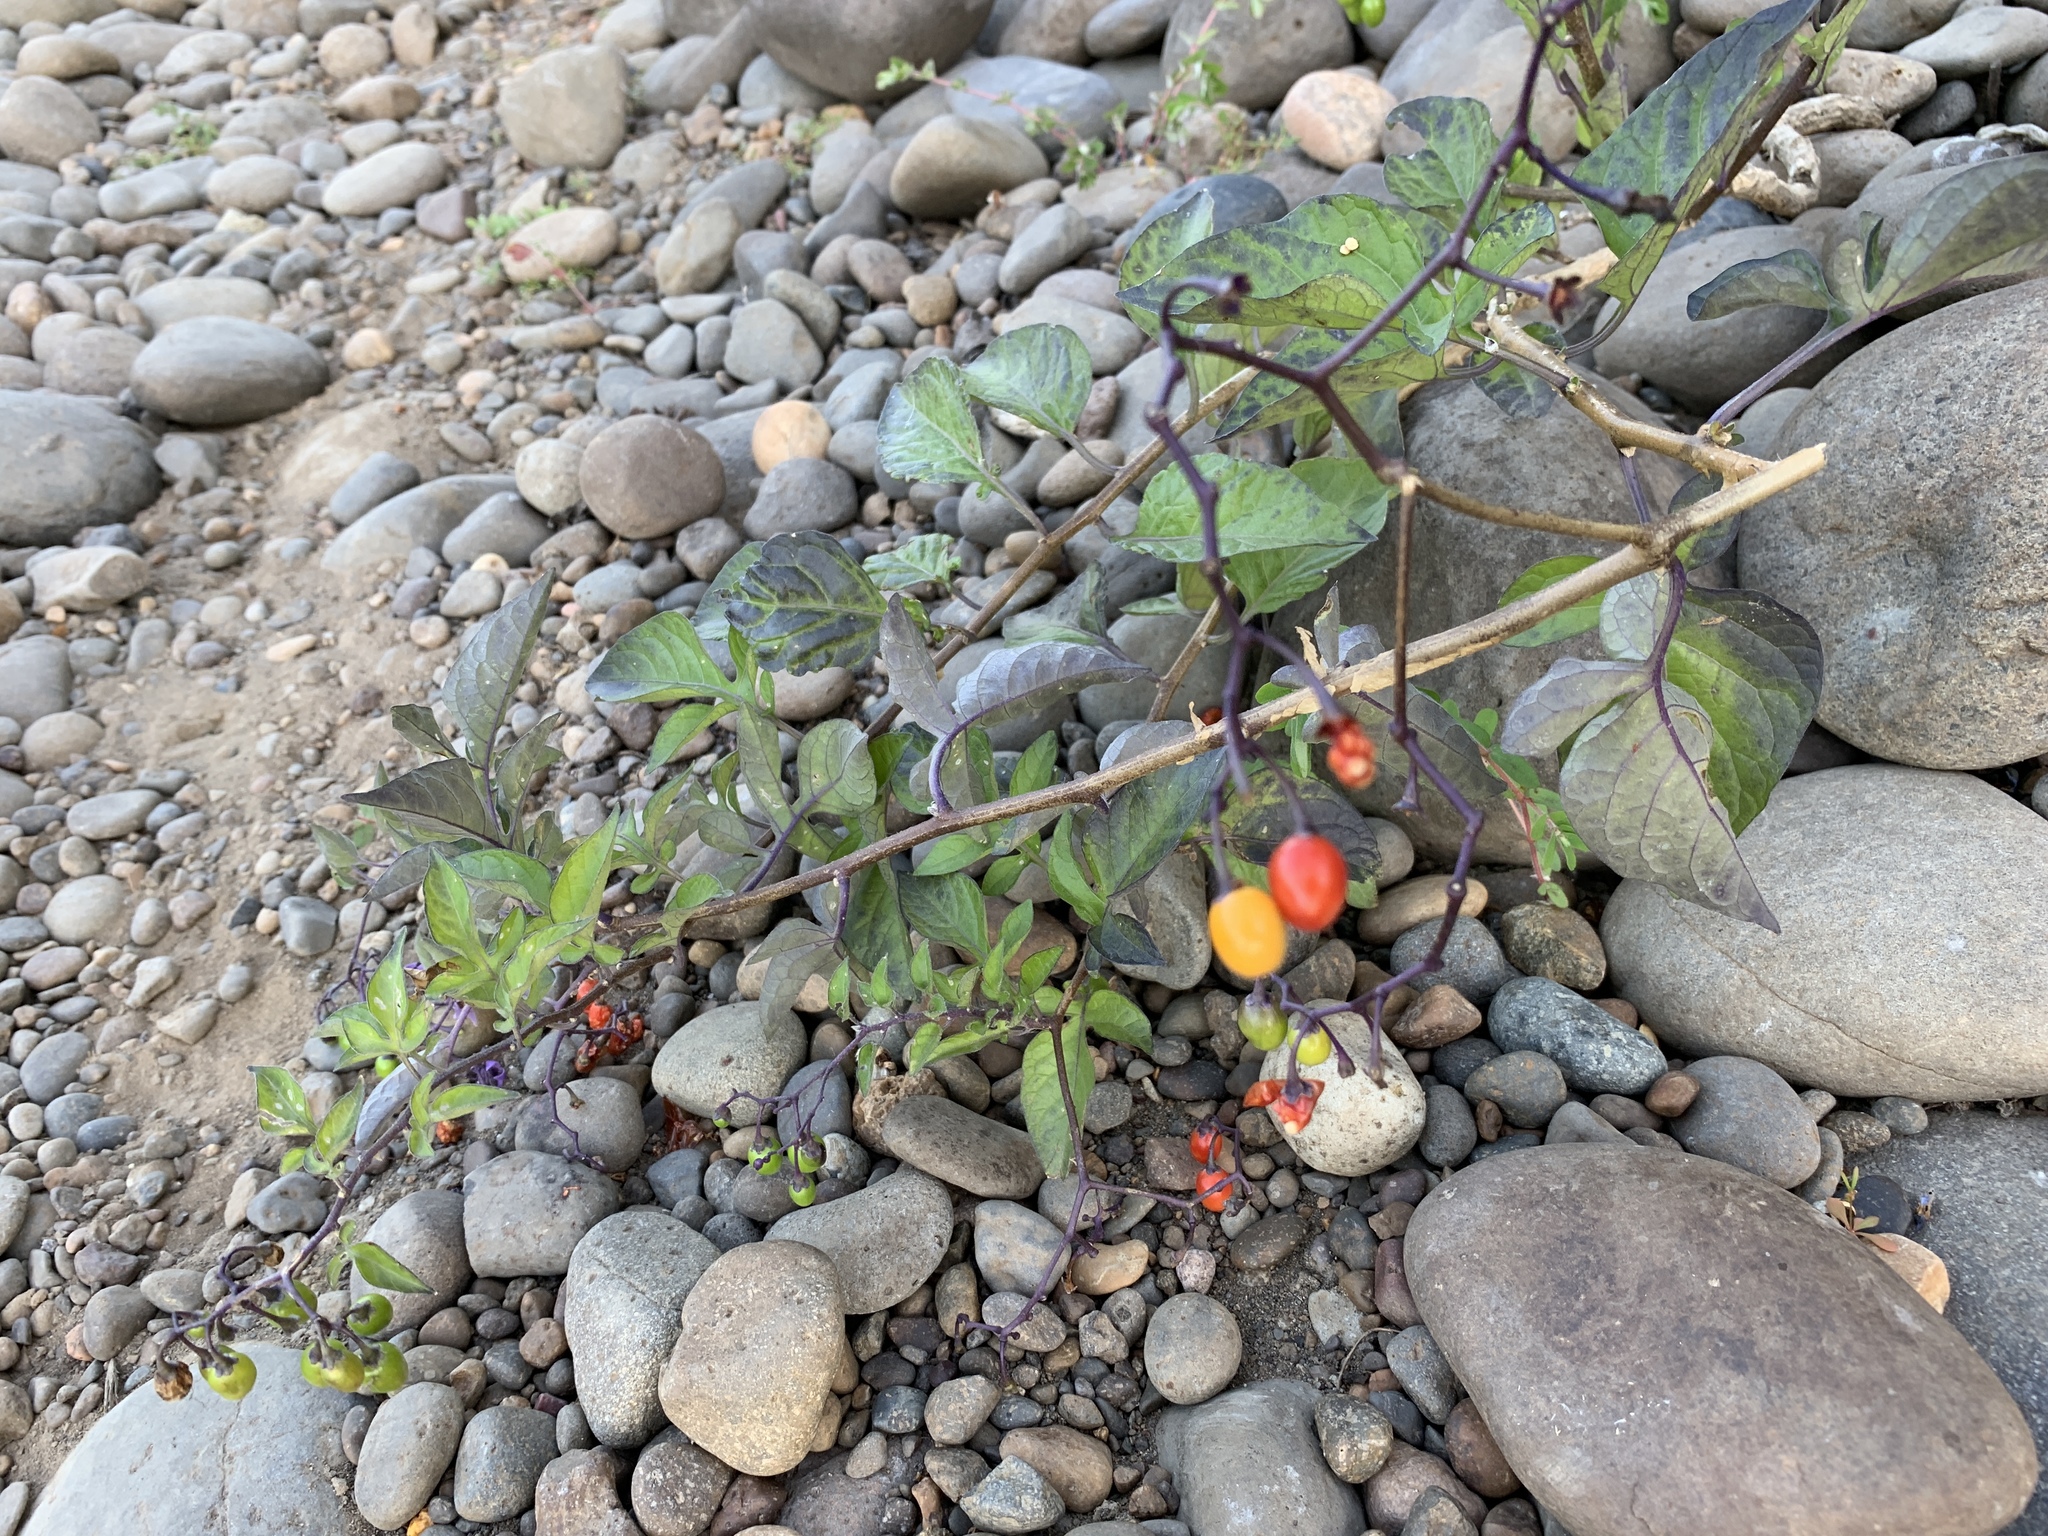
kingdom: Plantae
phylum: Tracheophyta
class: Magnoliopsida
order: Solanales
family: Solanaceae
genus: Solanum
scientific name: Solanum dulcamara
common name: Climbing nightshade
